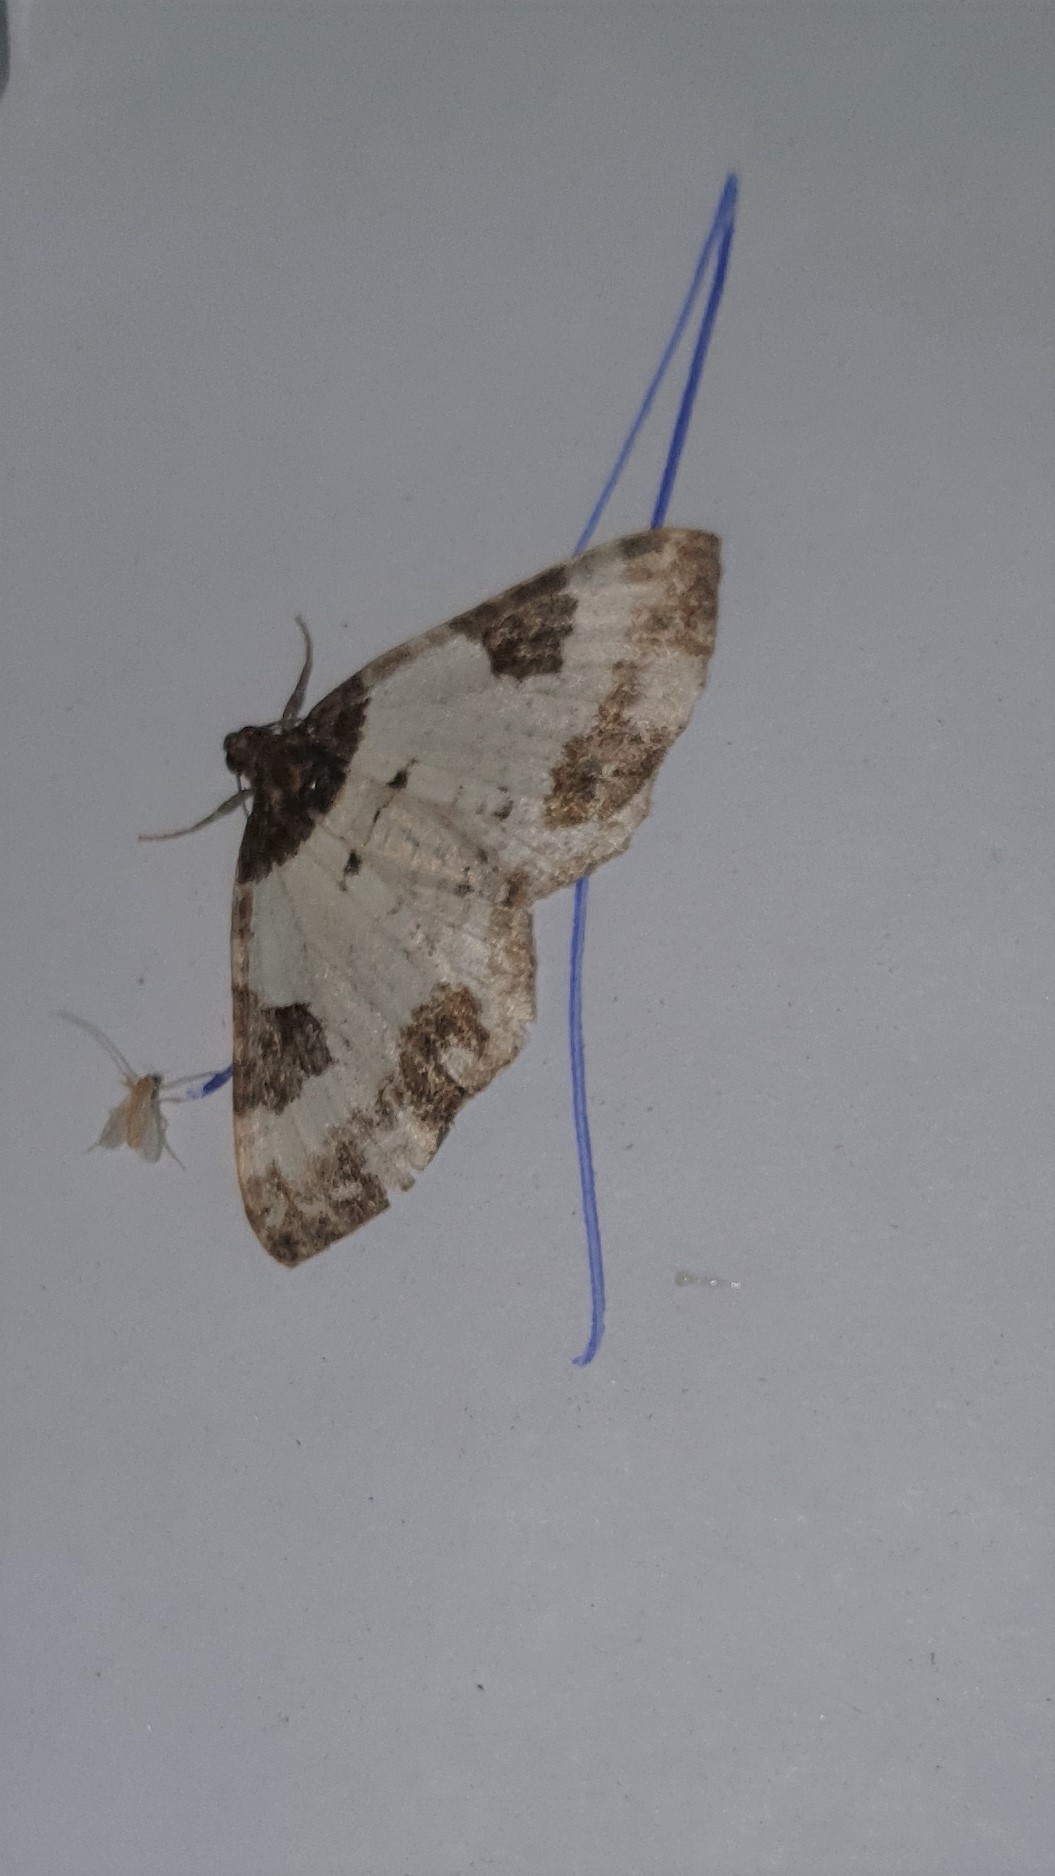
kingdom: Animalia
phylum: Arthropoda
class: Insecta
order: Lepidoptera
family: Geometridae
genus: Melanthia
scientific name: Melanthia procellata
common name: Pretty chalk carpet
